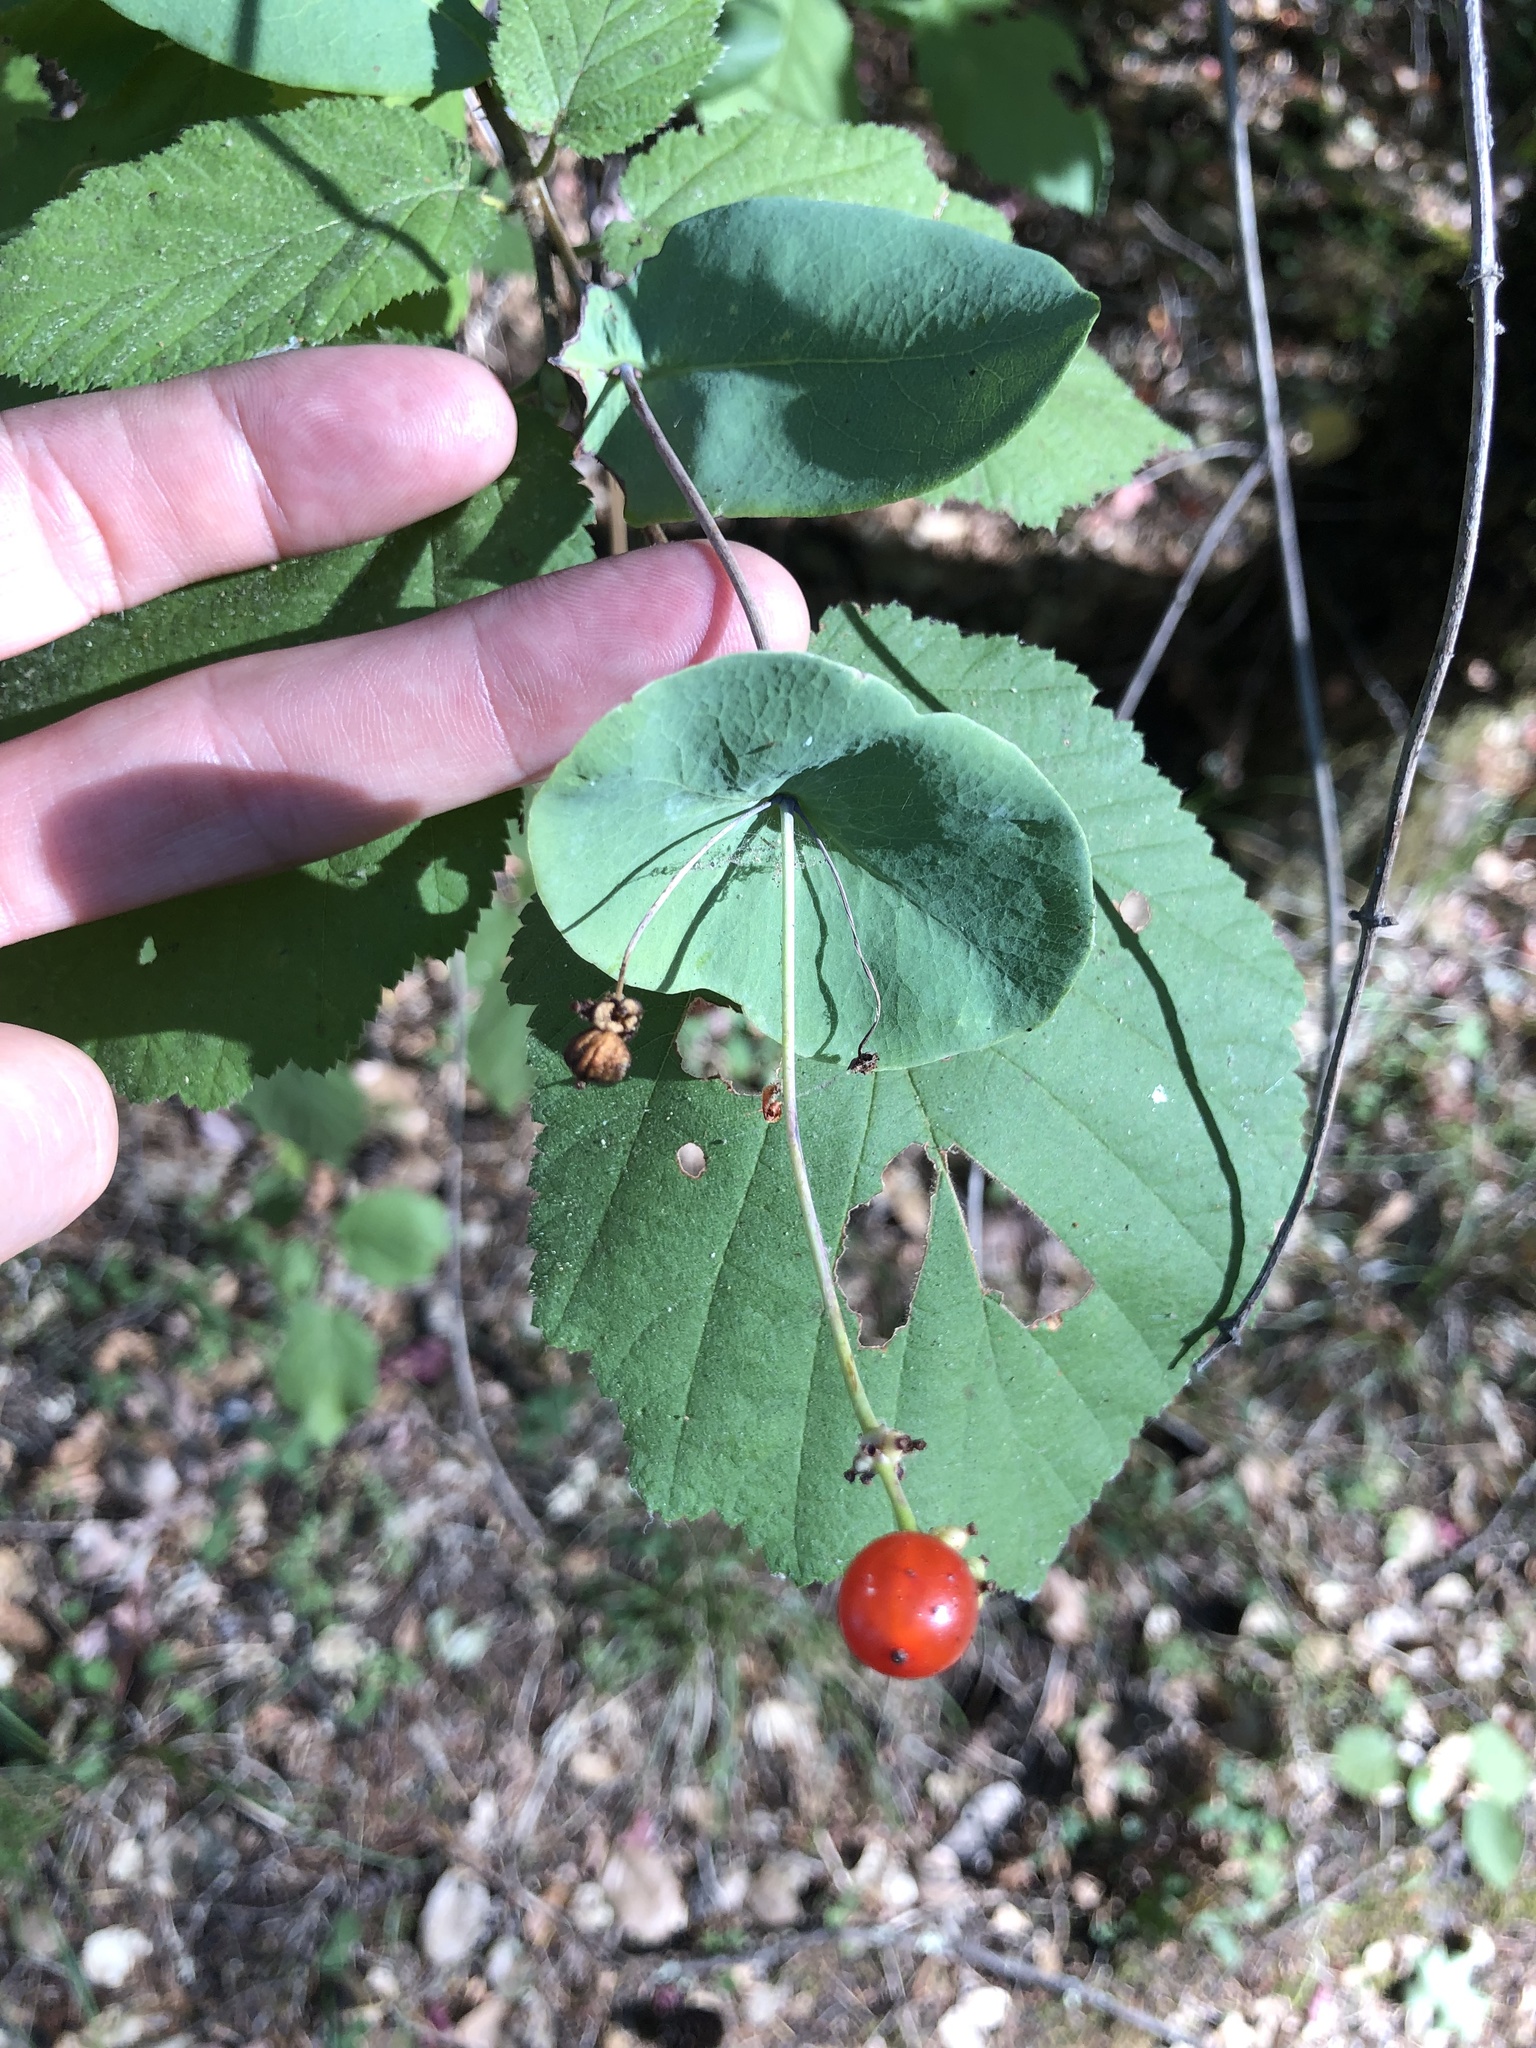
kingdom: Plantae
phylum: Tracheophyta
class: Magnoliopsida
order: Dipsacales
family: Caprifoliaceae
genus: Lonicera
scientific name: Lonicera hispidula
